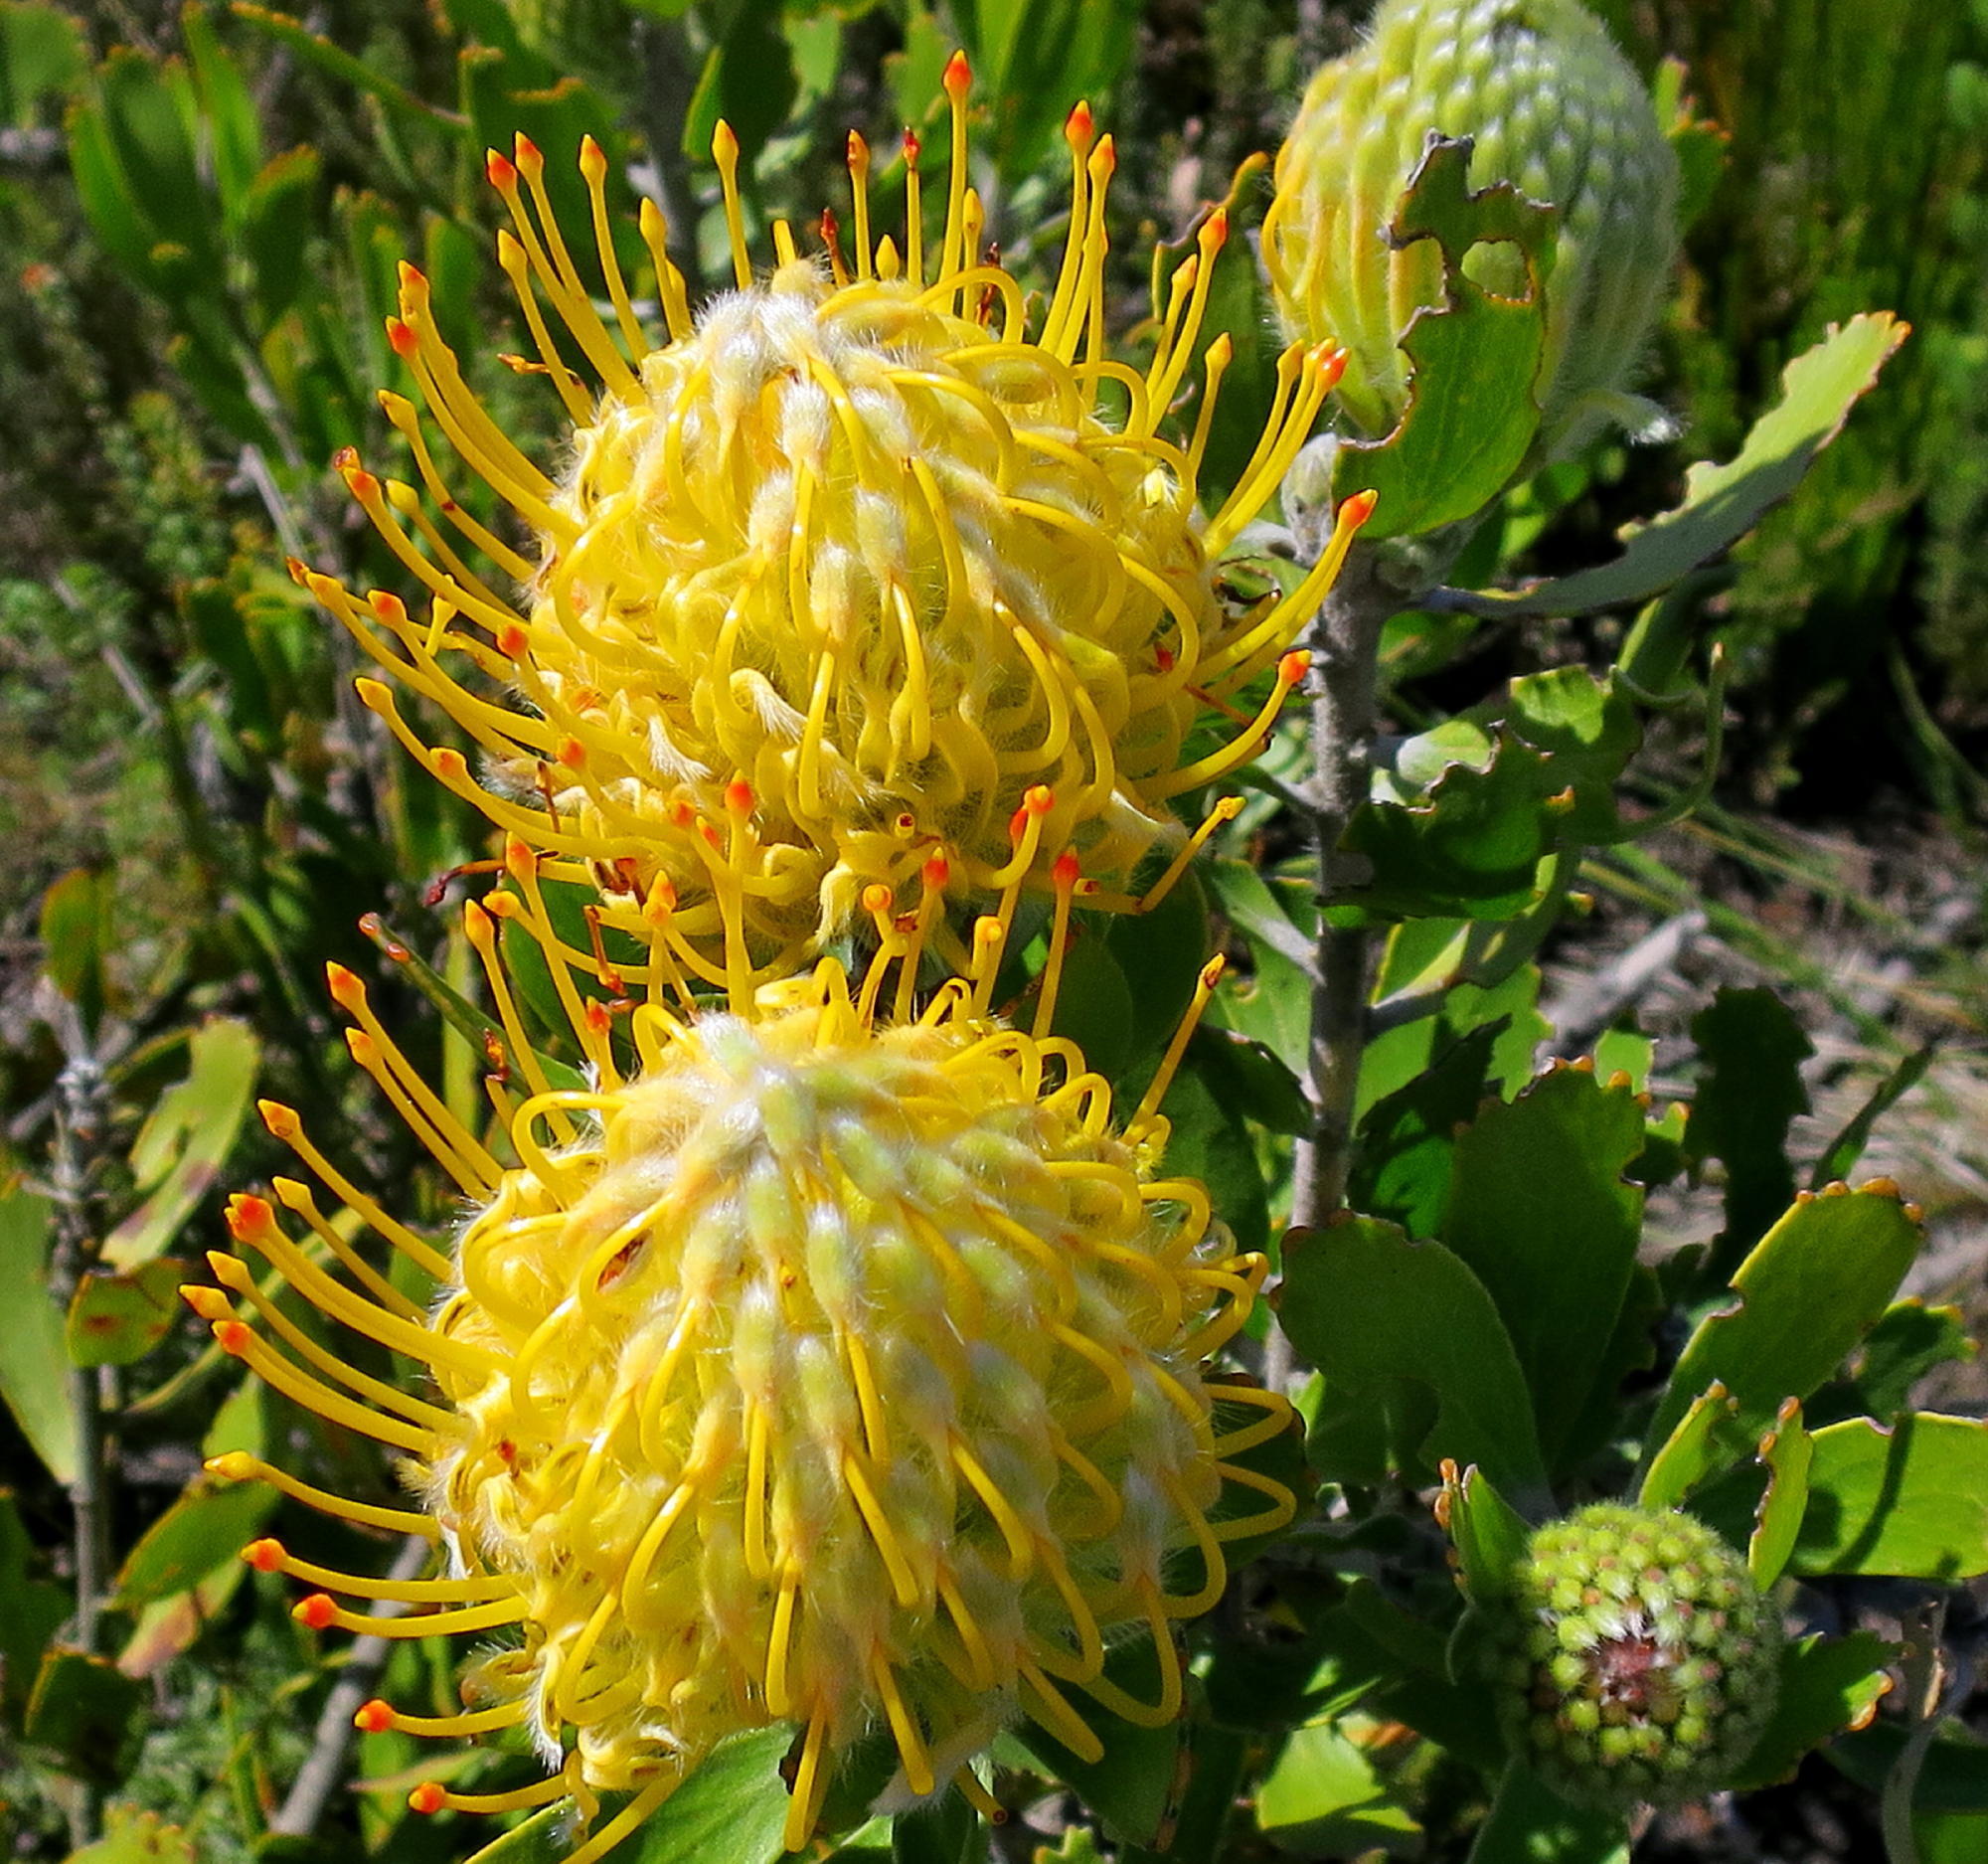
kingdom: Plantae
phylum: Tracheophyta
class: Magnoliopsida
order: Proteales
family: Proteaceae
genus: Leucospermum
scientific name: Leucospermum cuneiforme
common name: Common pincushion
